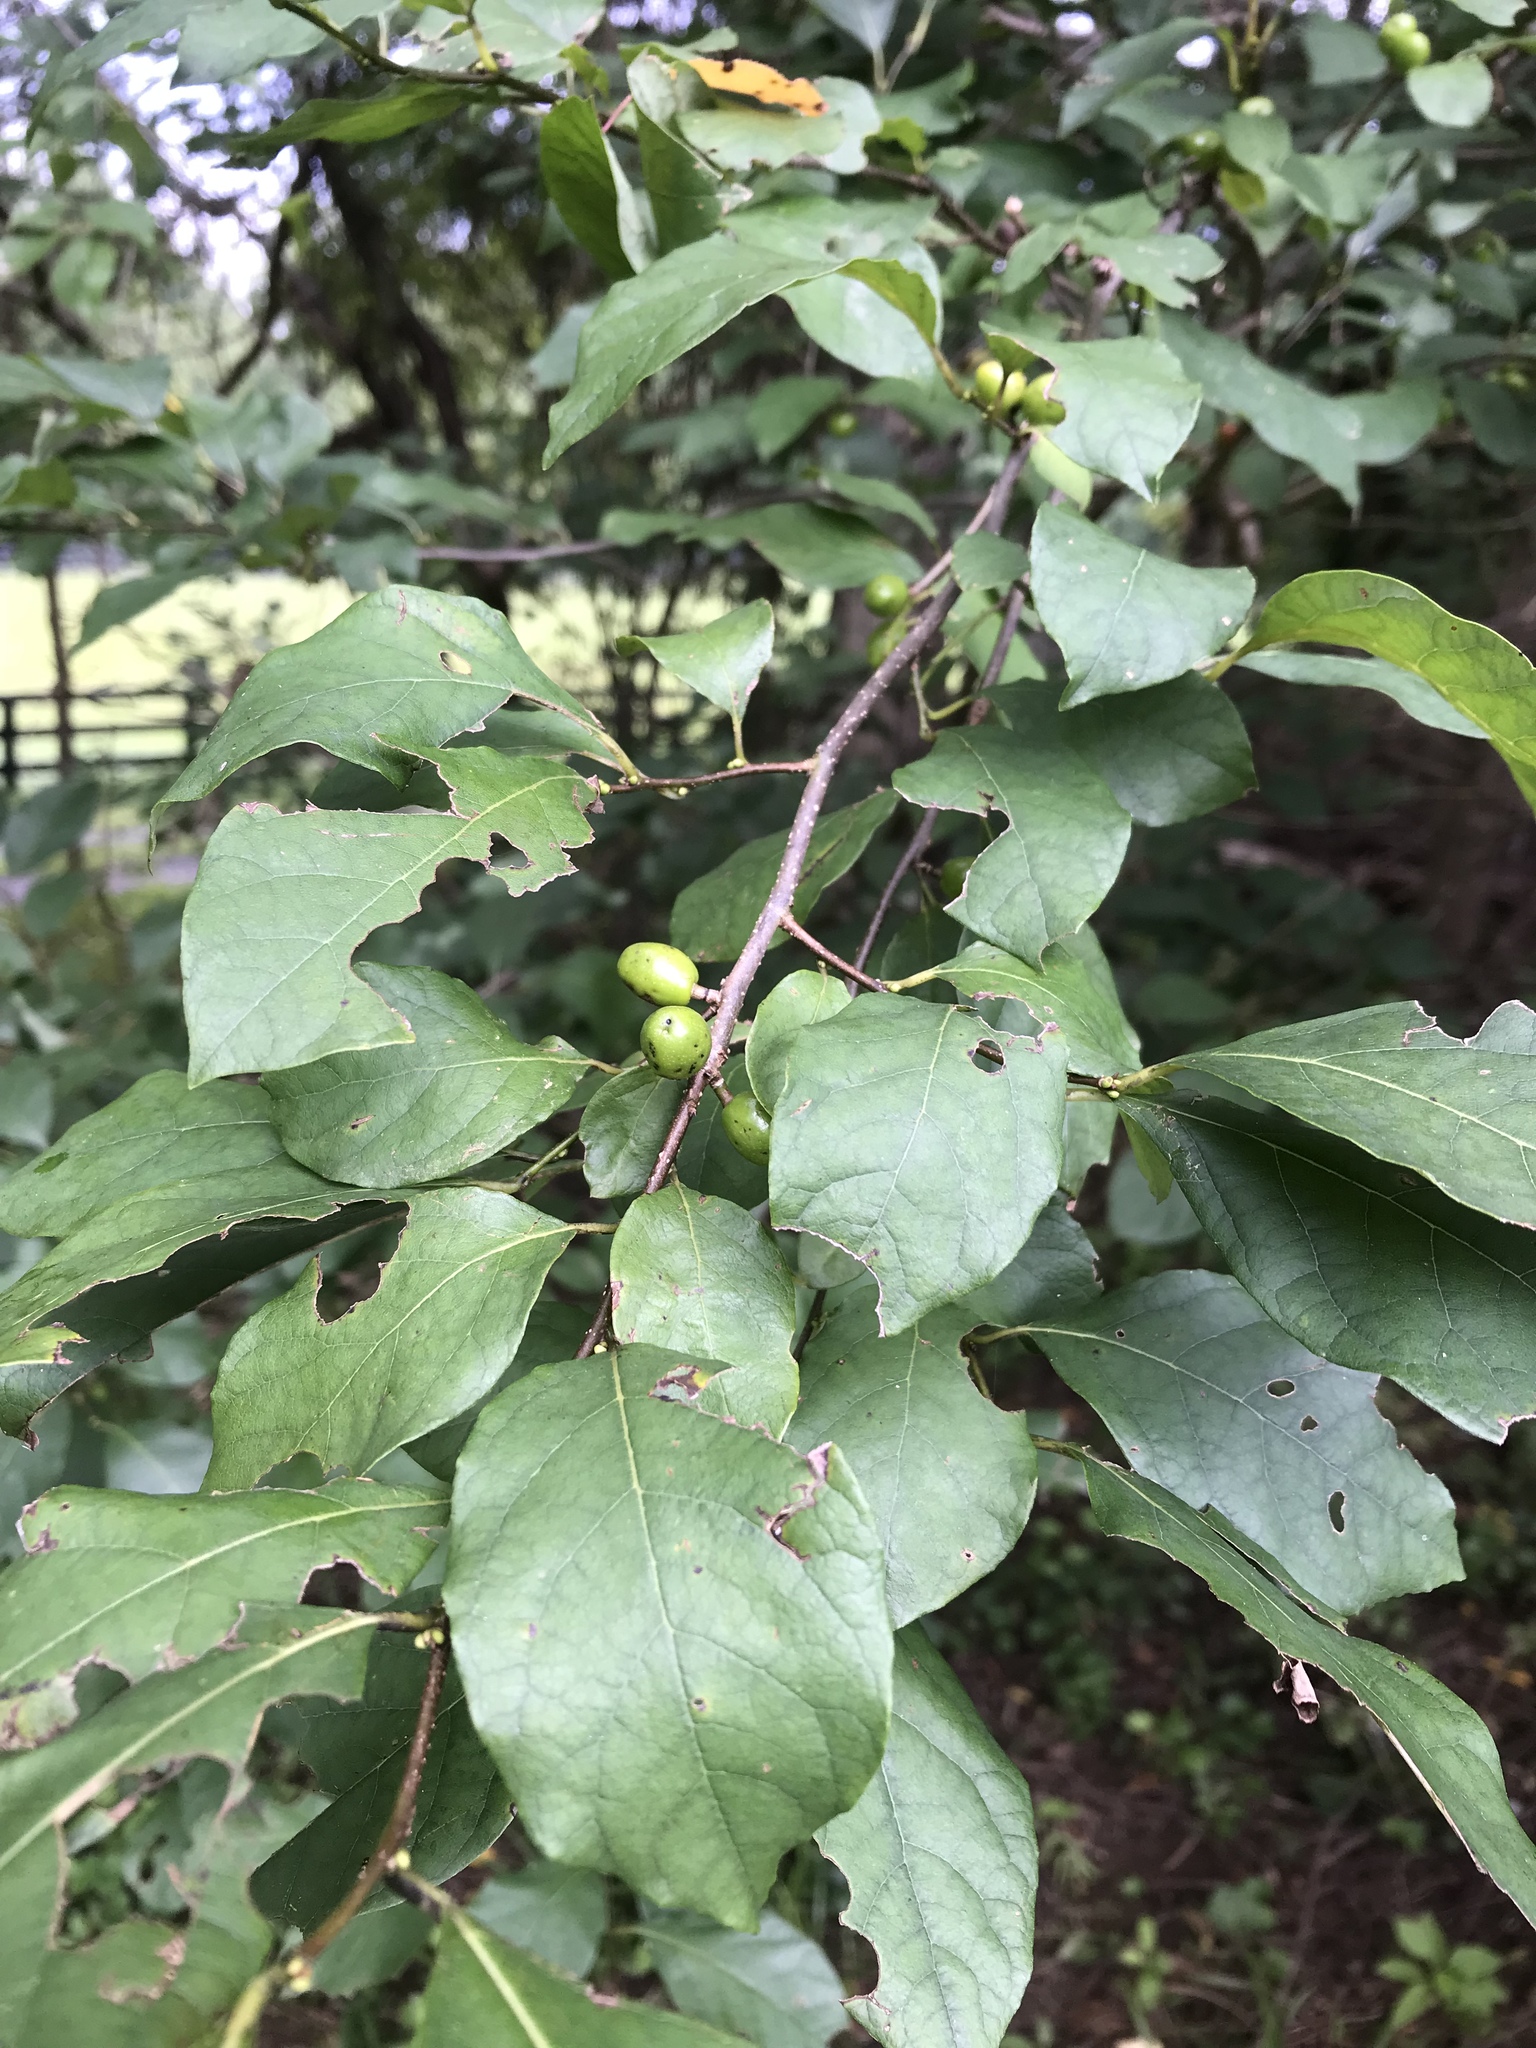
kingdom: Plantae
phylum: Tracheophyta
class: Magnoliopsida
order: Laurales
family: Lauraceae
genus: Lindera
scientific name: Lindera benzoin
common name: Spicebush
